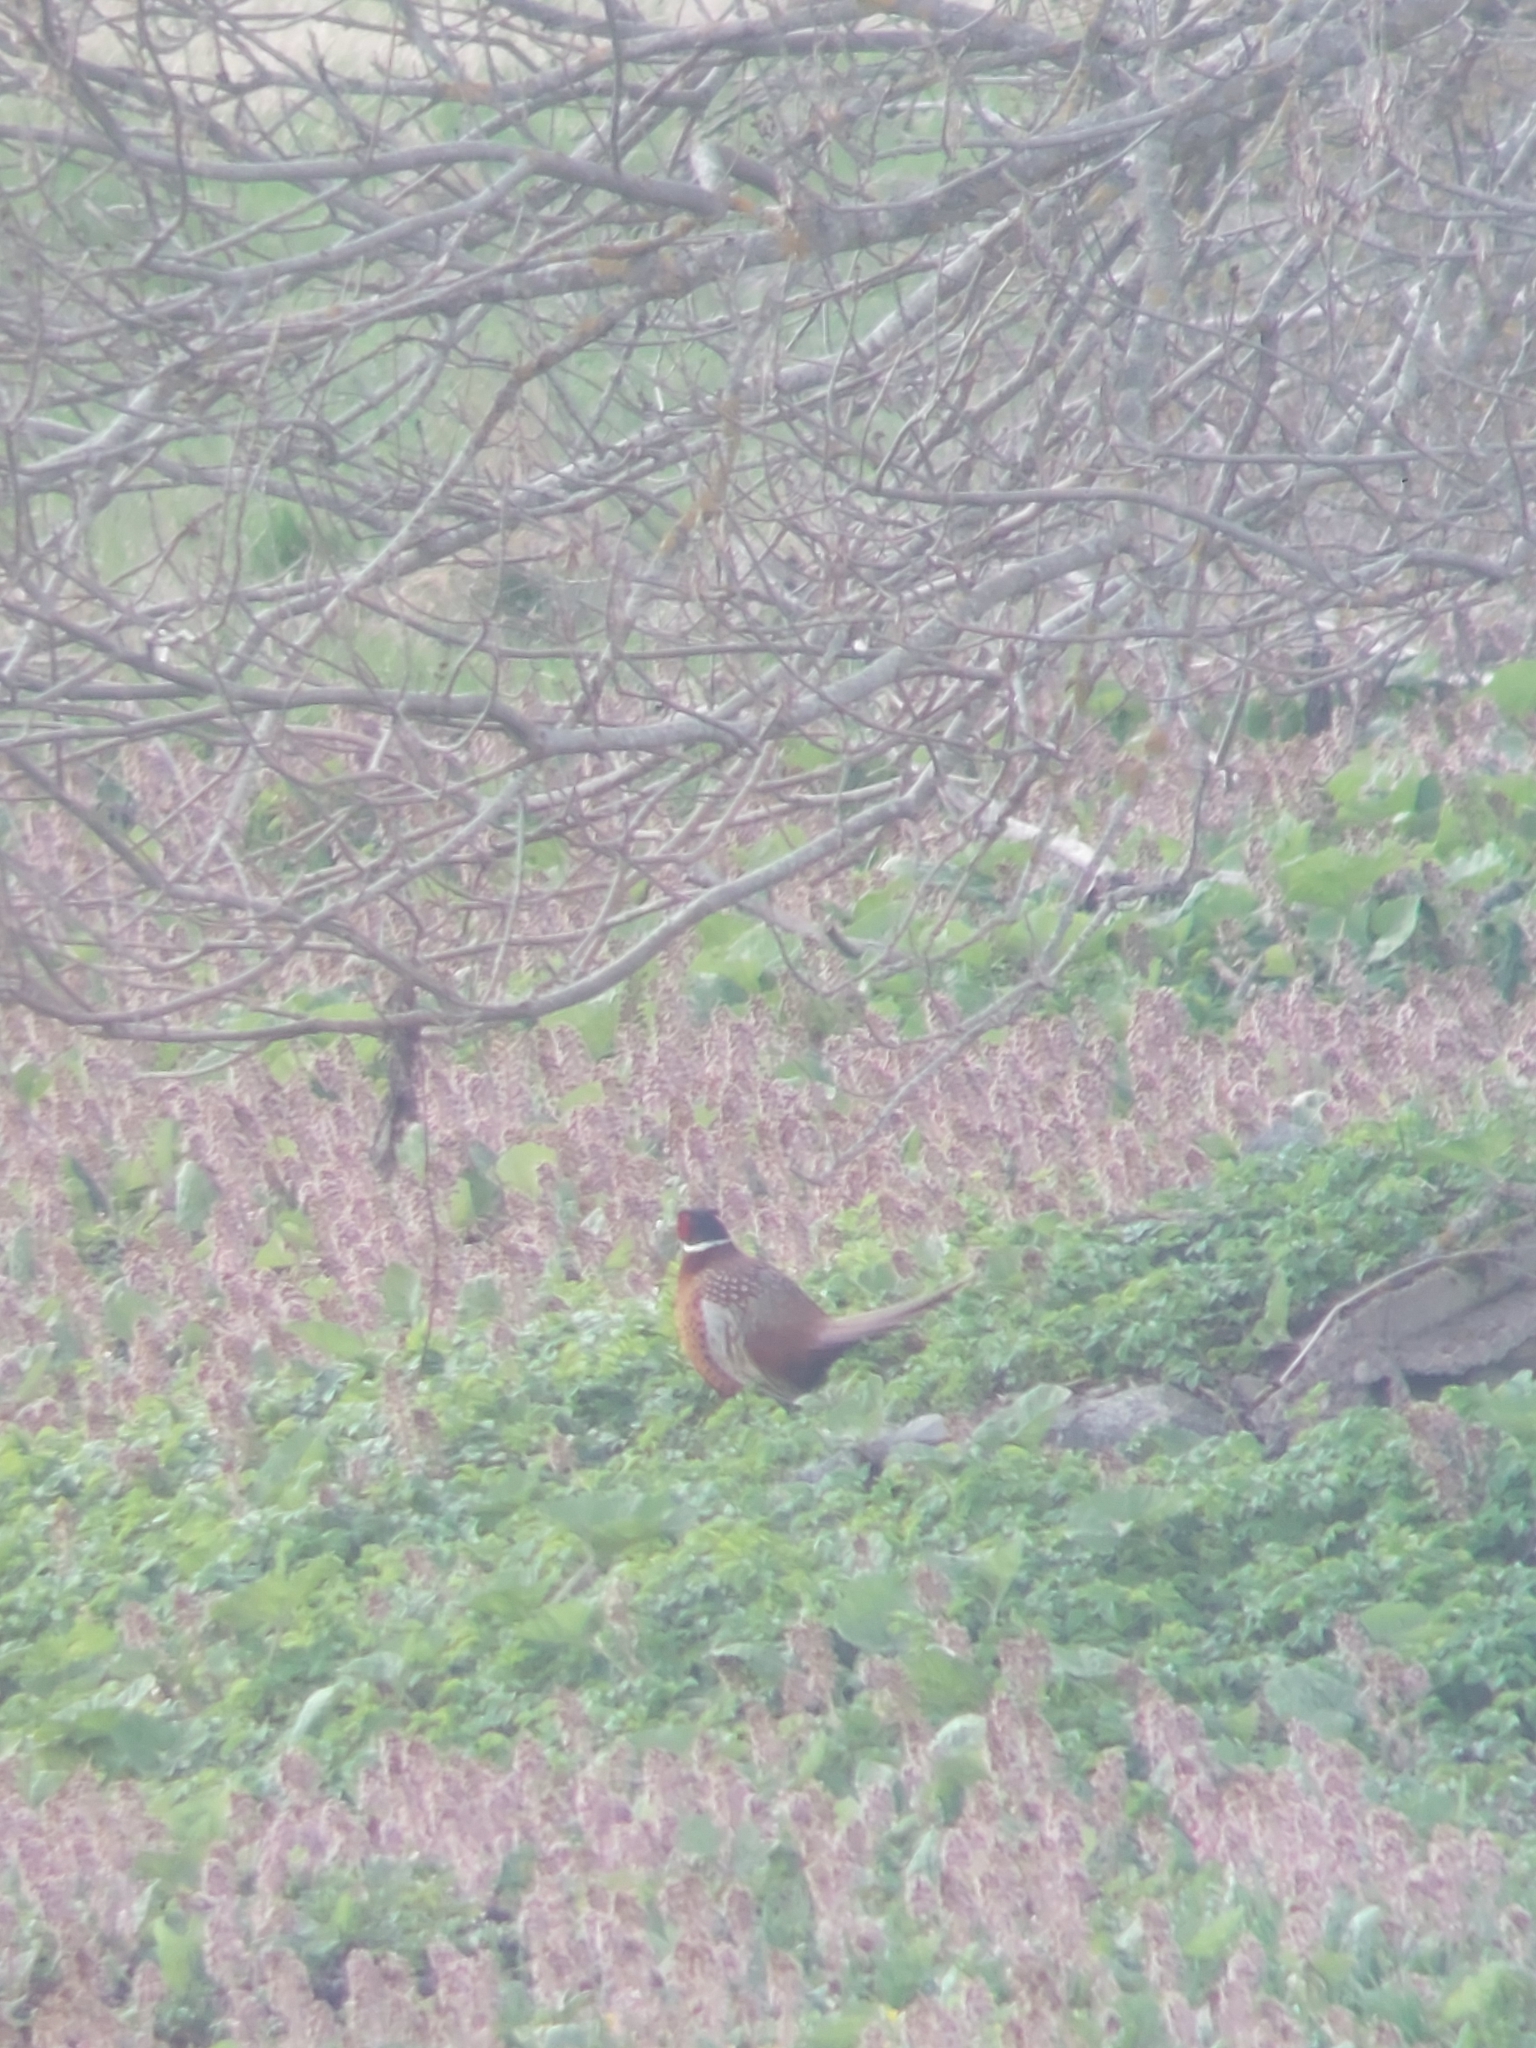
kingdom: Animalia
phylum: Chordata
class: Aves
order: Galliformes
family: Phasianidae
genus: Phasianus
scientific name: Phasianus colchicus
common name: Common pheasant
